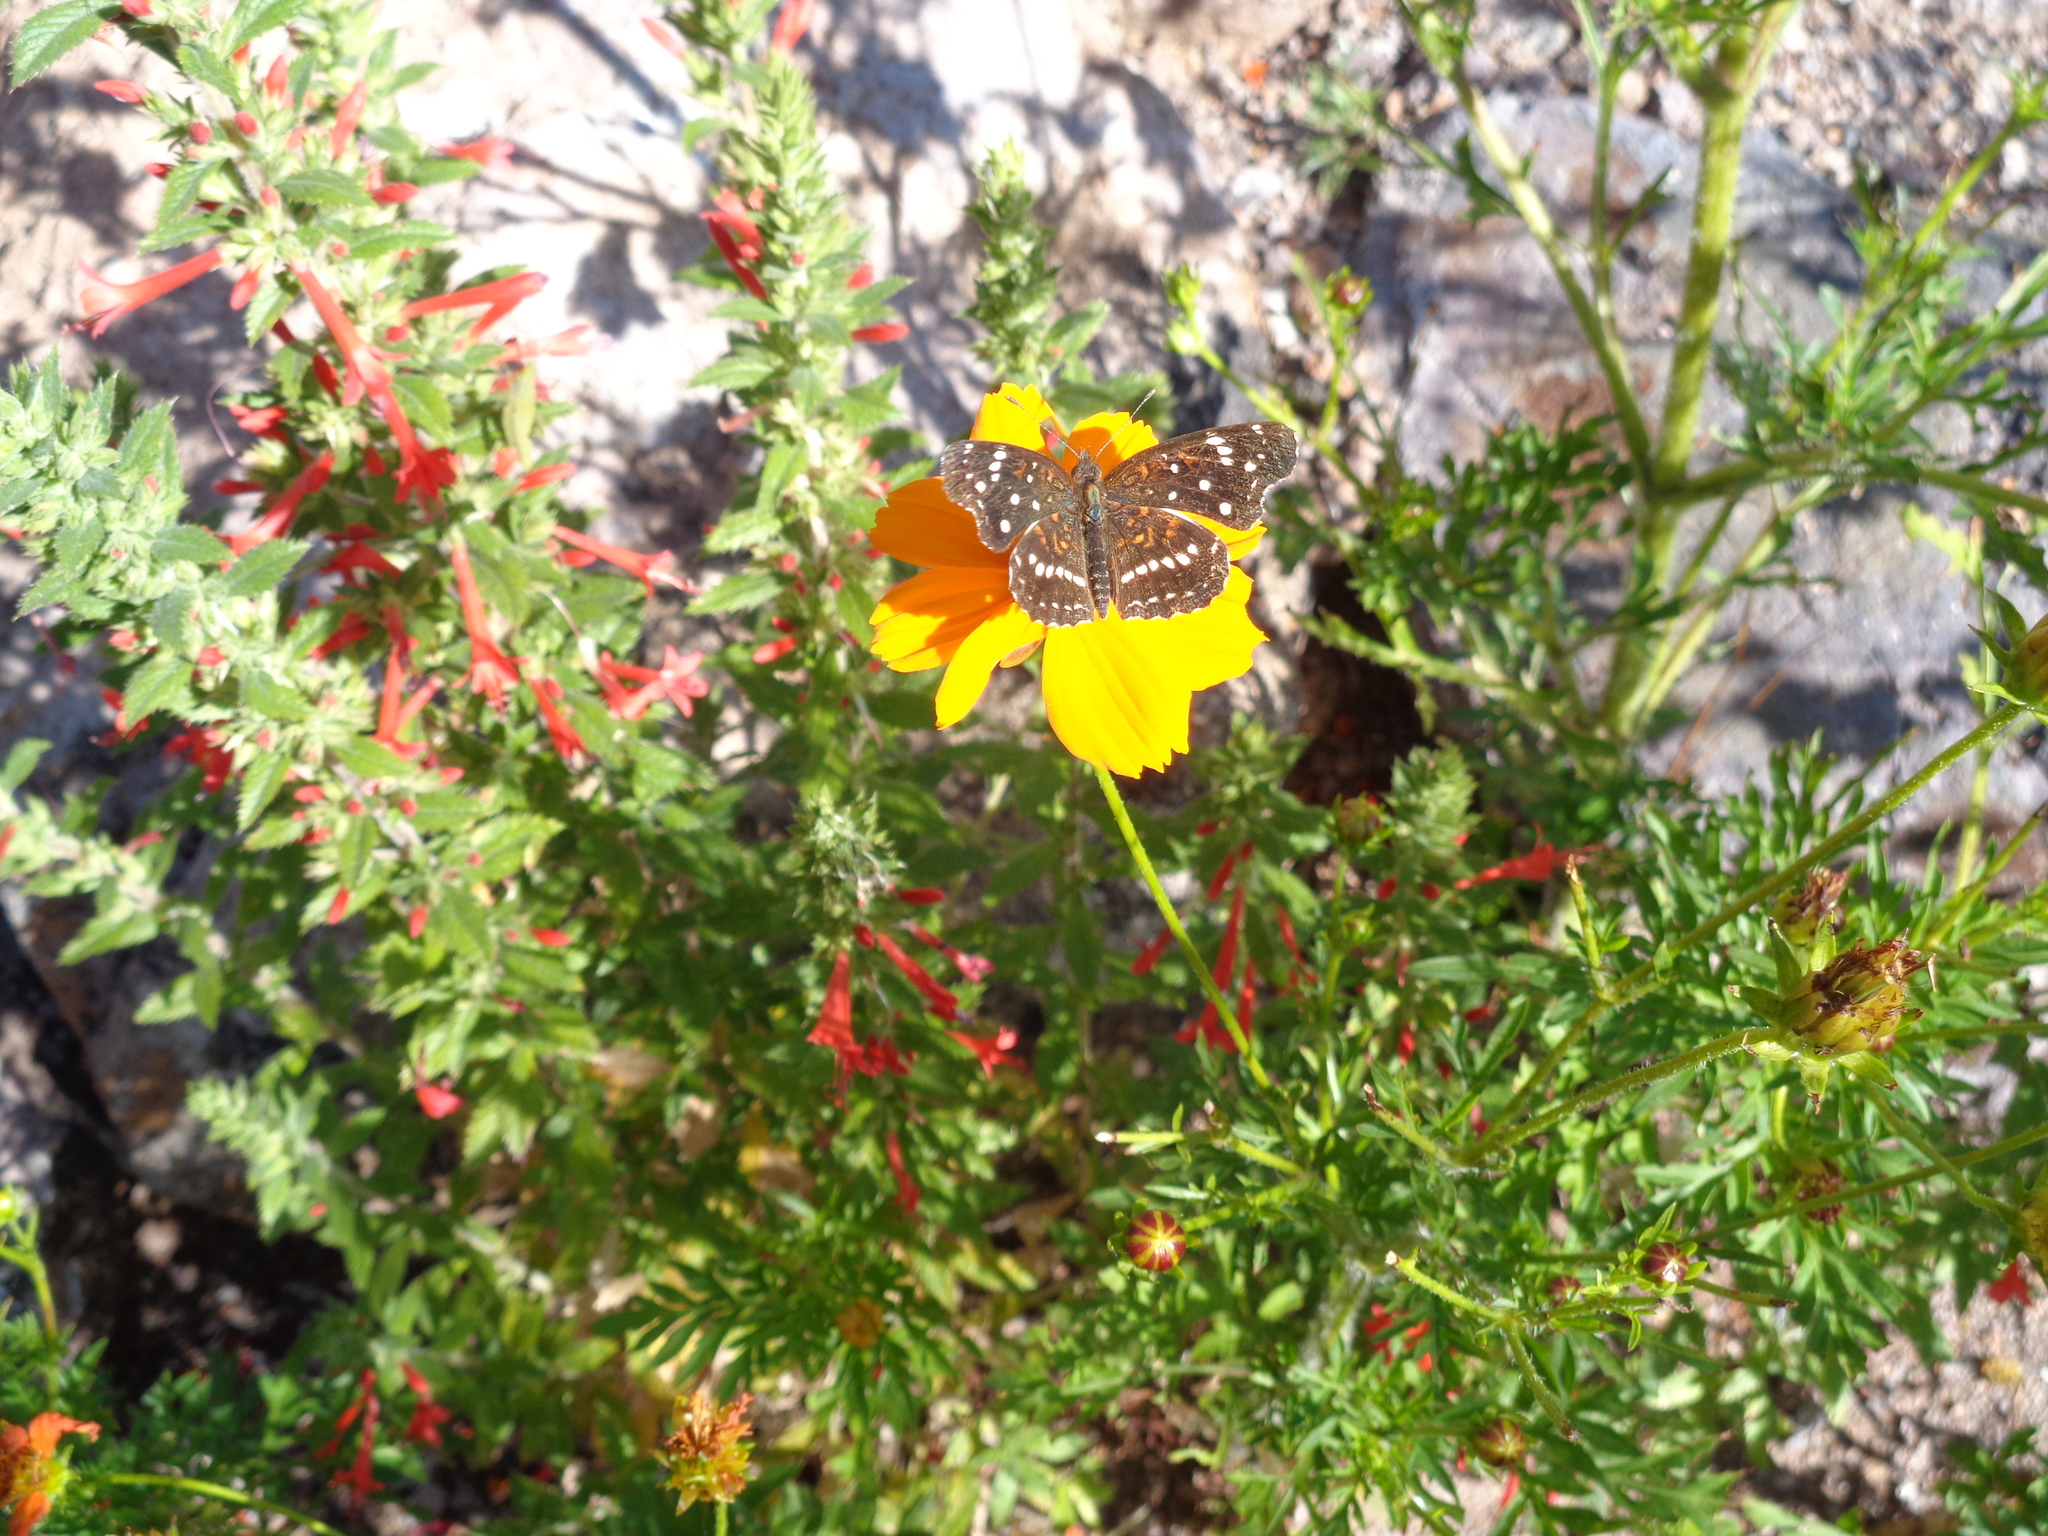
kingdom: Animalia
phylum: Arthropoda
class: Insecta
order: Lepidoptera
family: Nymphalidae
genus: Anthanassa
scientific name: Anthanassa texana
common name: Texan crescent
